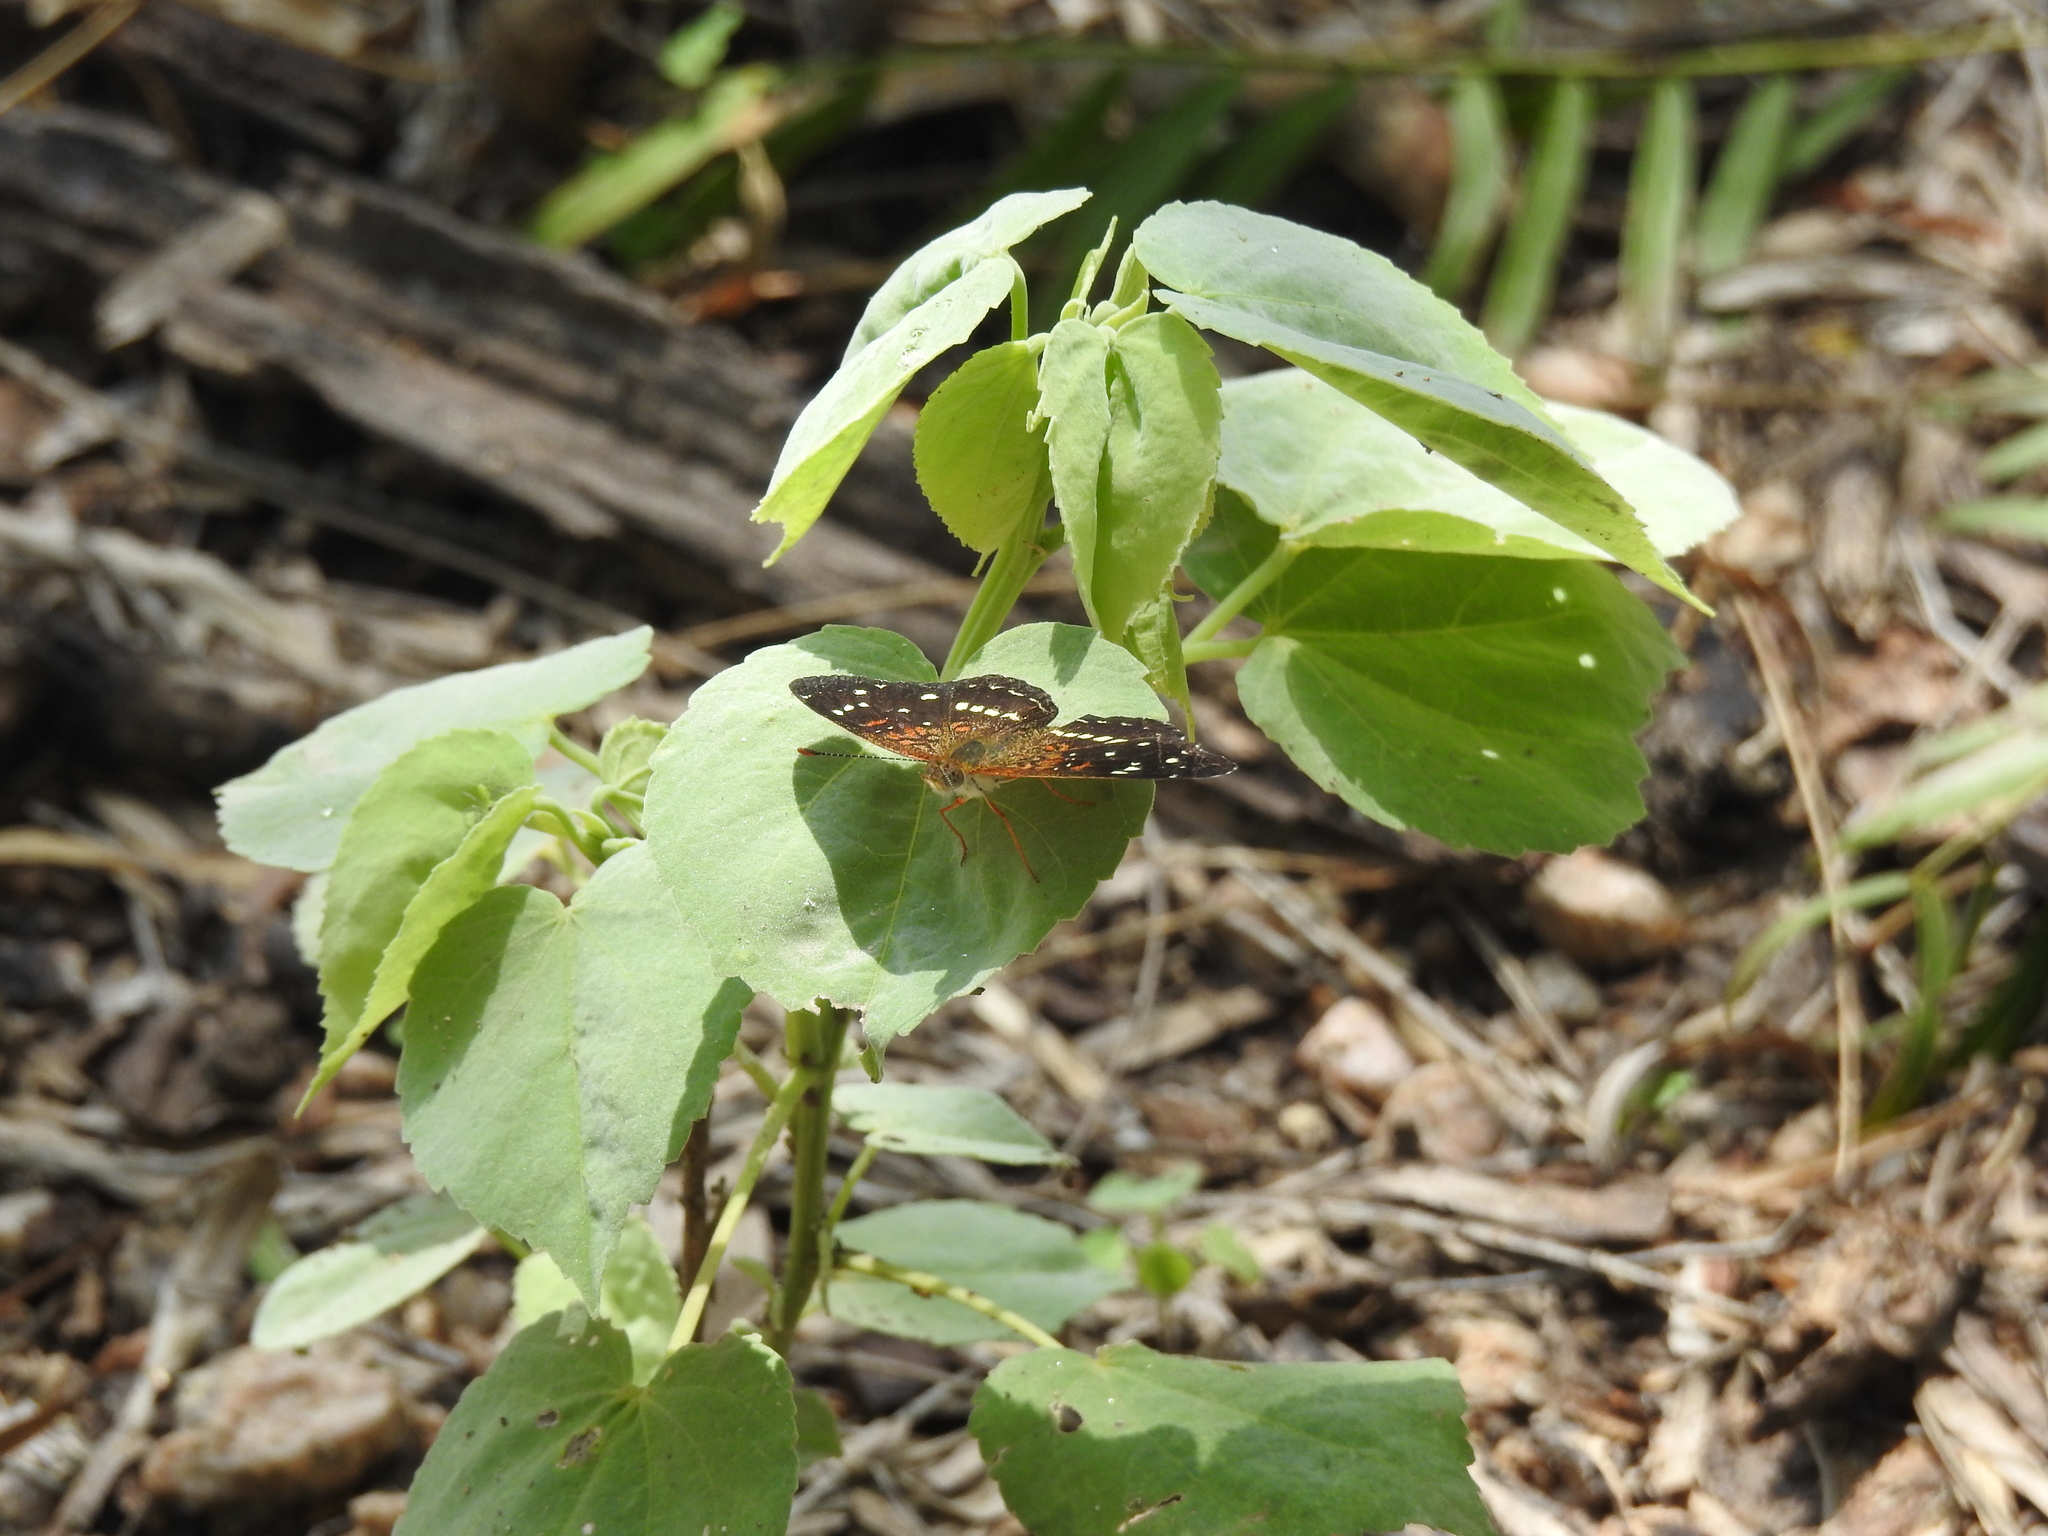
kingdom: Animalia
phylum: Arthropoda
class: Insecta
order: Lepidoptera
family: Nymphalidae
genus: Anthanassa
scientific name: Anthanassa texana
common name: Texan crescent
